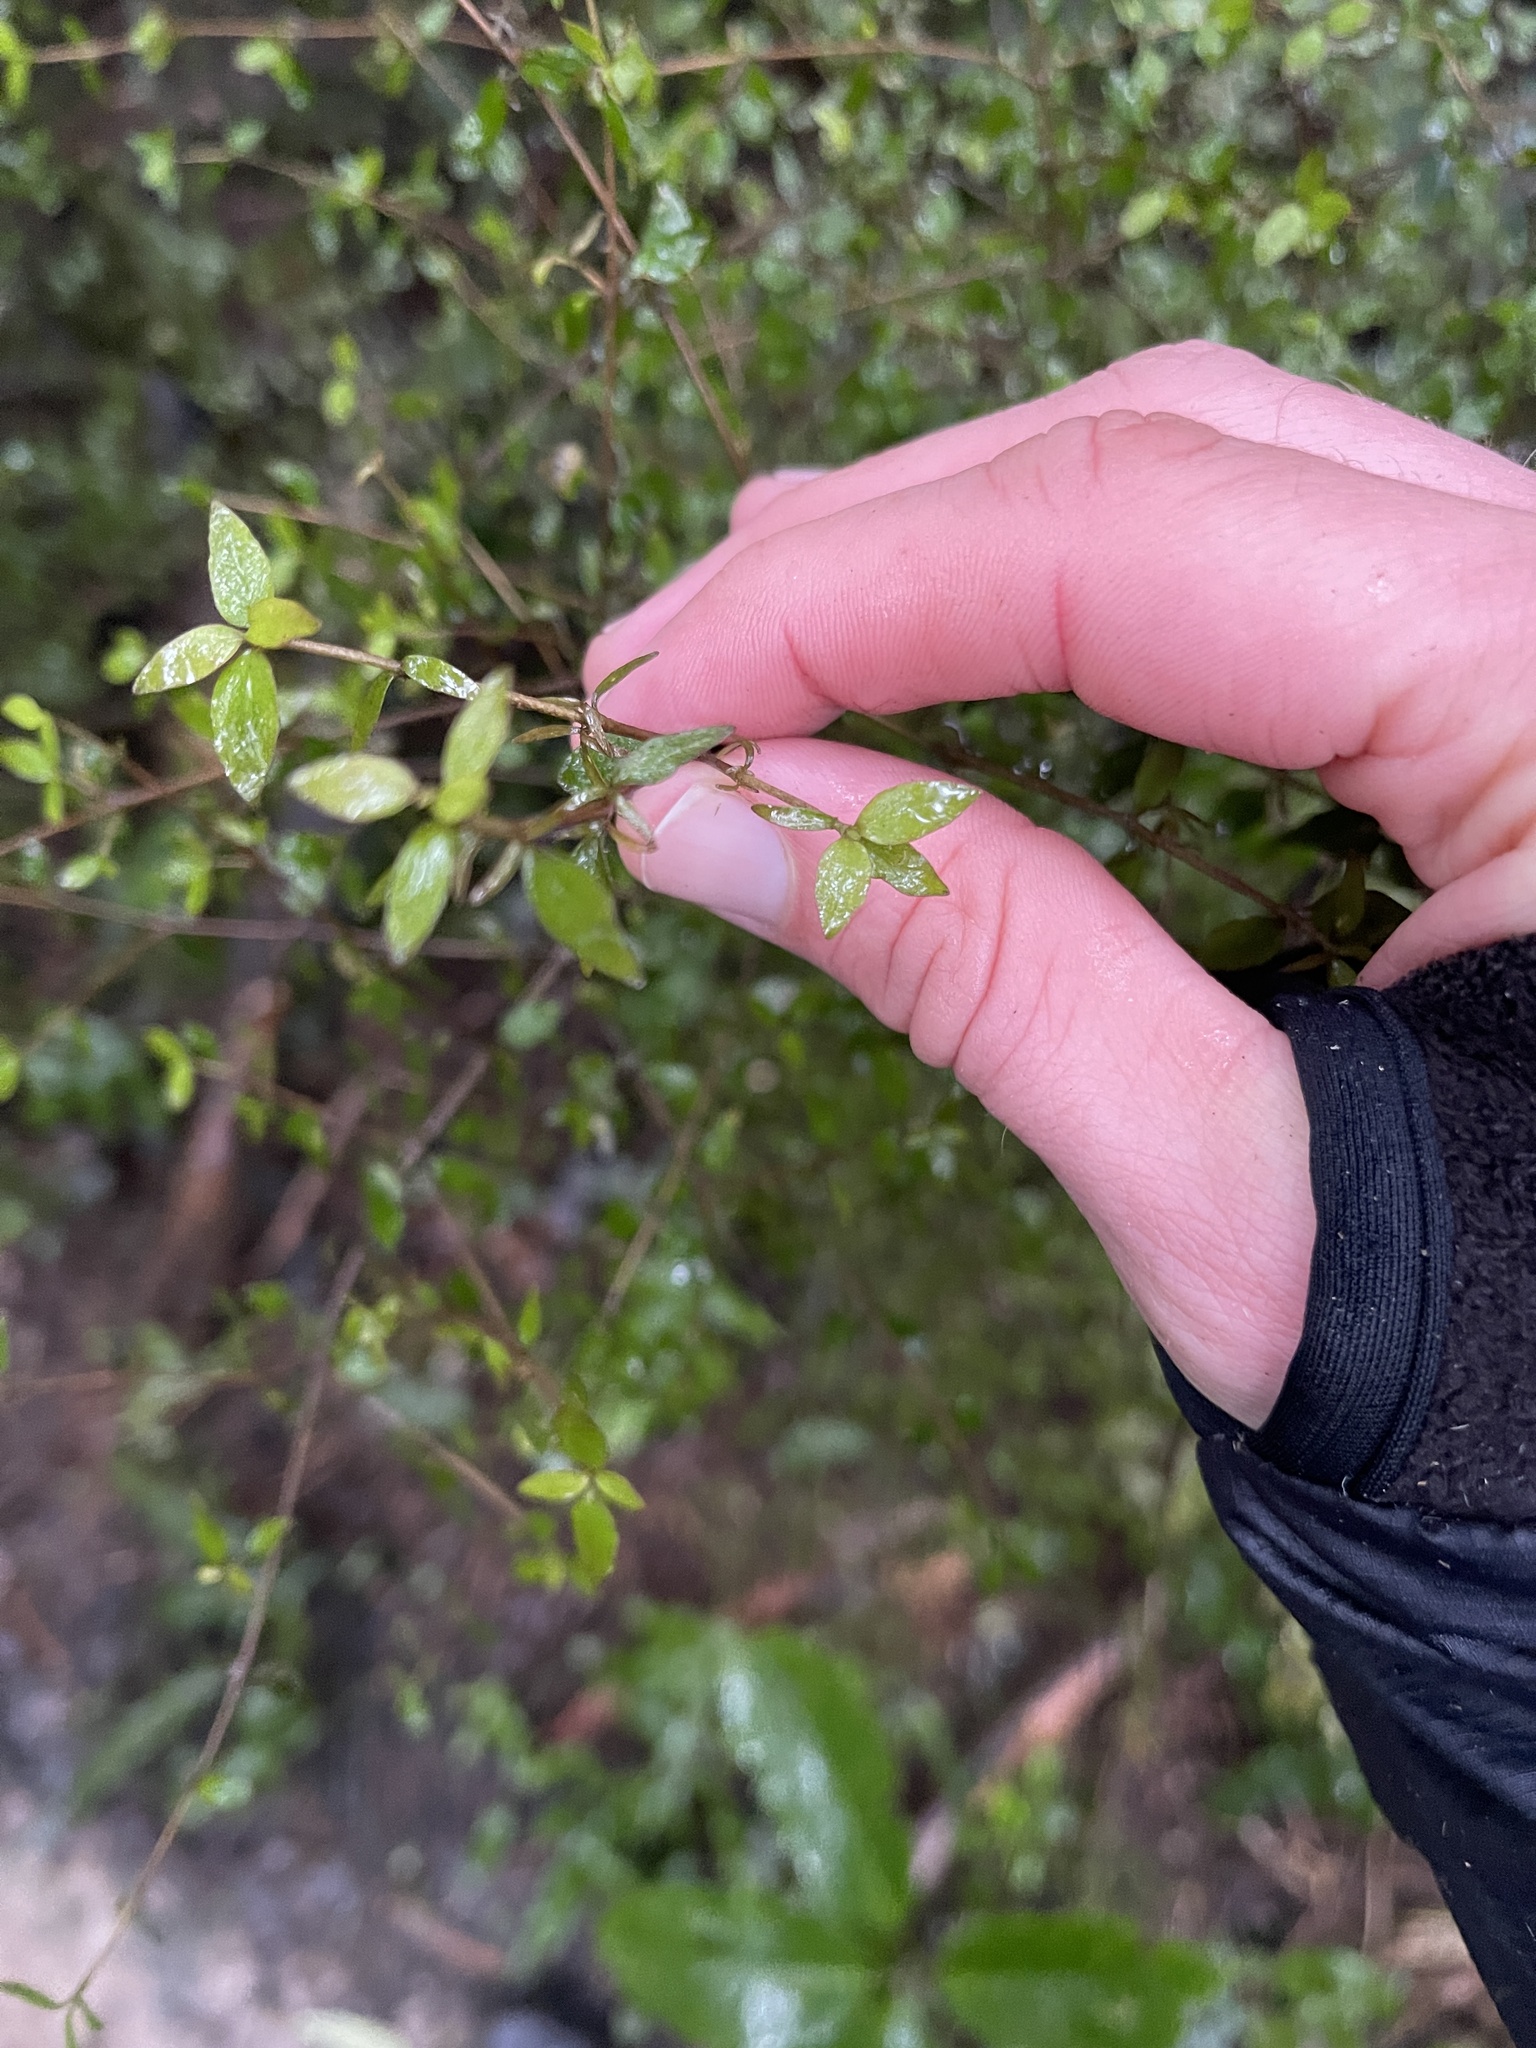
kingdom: Plantae
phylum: Tracheophyta
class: Magnoliopsida
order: Gentianales
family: Rubiaceae
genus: Coprosma
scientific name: Coprosma rhamnoides
